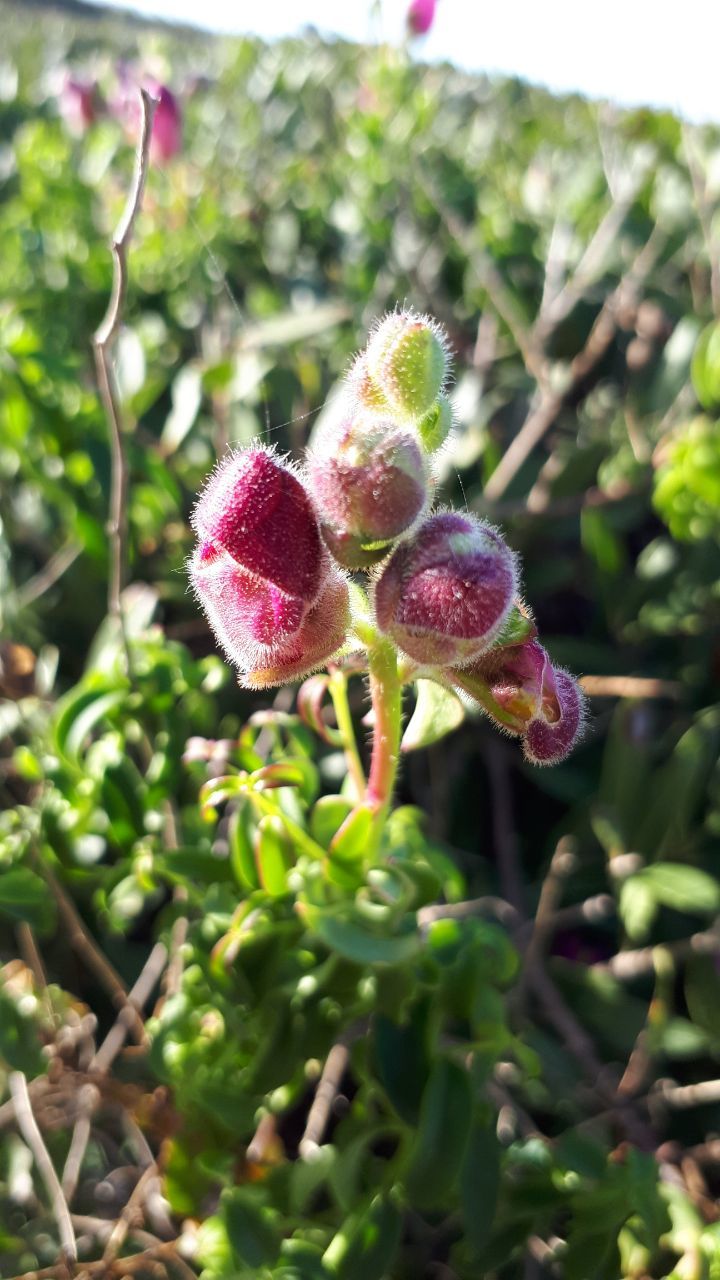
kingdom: Plantae
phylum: Tracheophyta
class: Magnoliopsida
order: Lamiales
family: Plantaginaceae
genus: Antirrhinum
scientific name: Antirrhinum cirrhigerum
